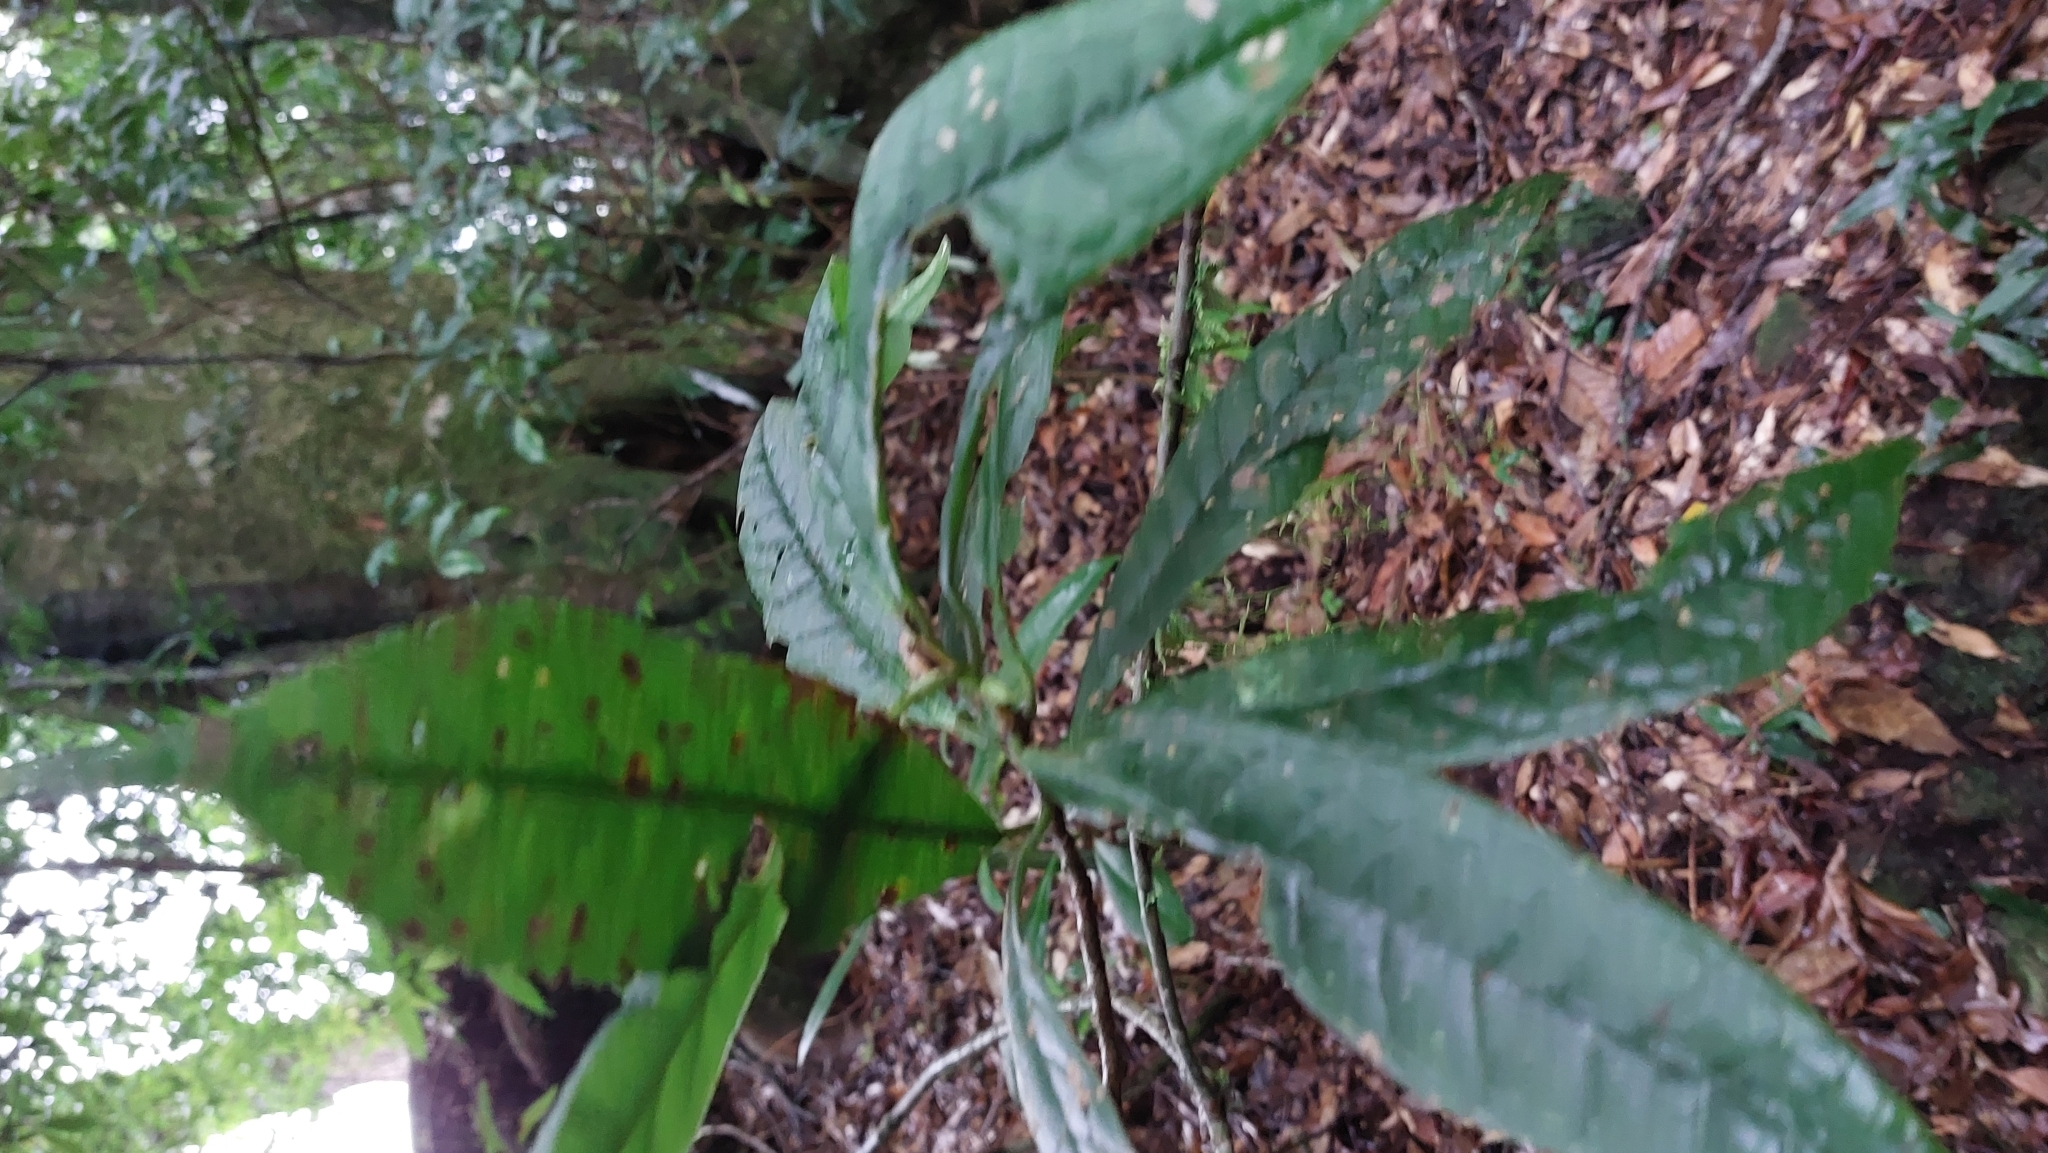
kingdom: Plantae
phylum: Tracheophyta
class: Magnoliopsida
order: Ericales
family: Symplocaceae
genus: Symplocos
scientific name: Symplocos stellaris
